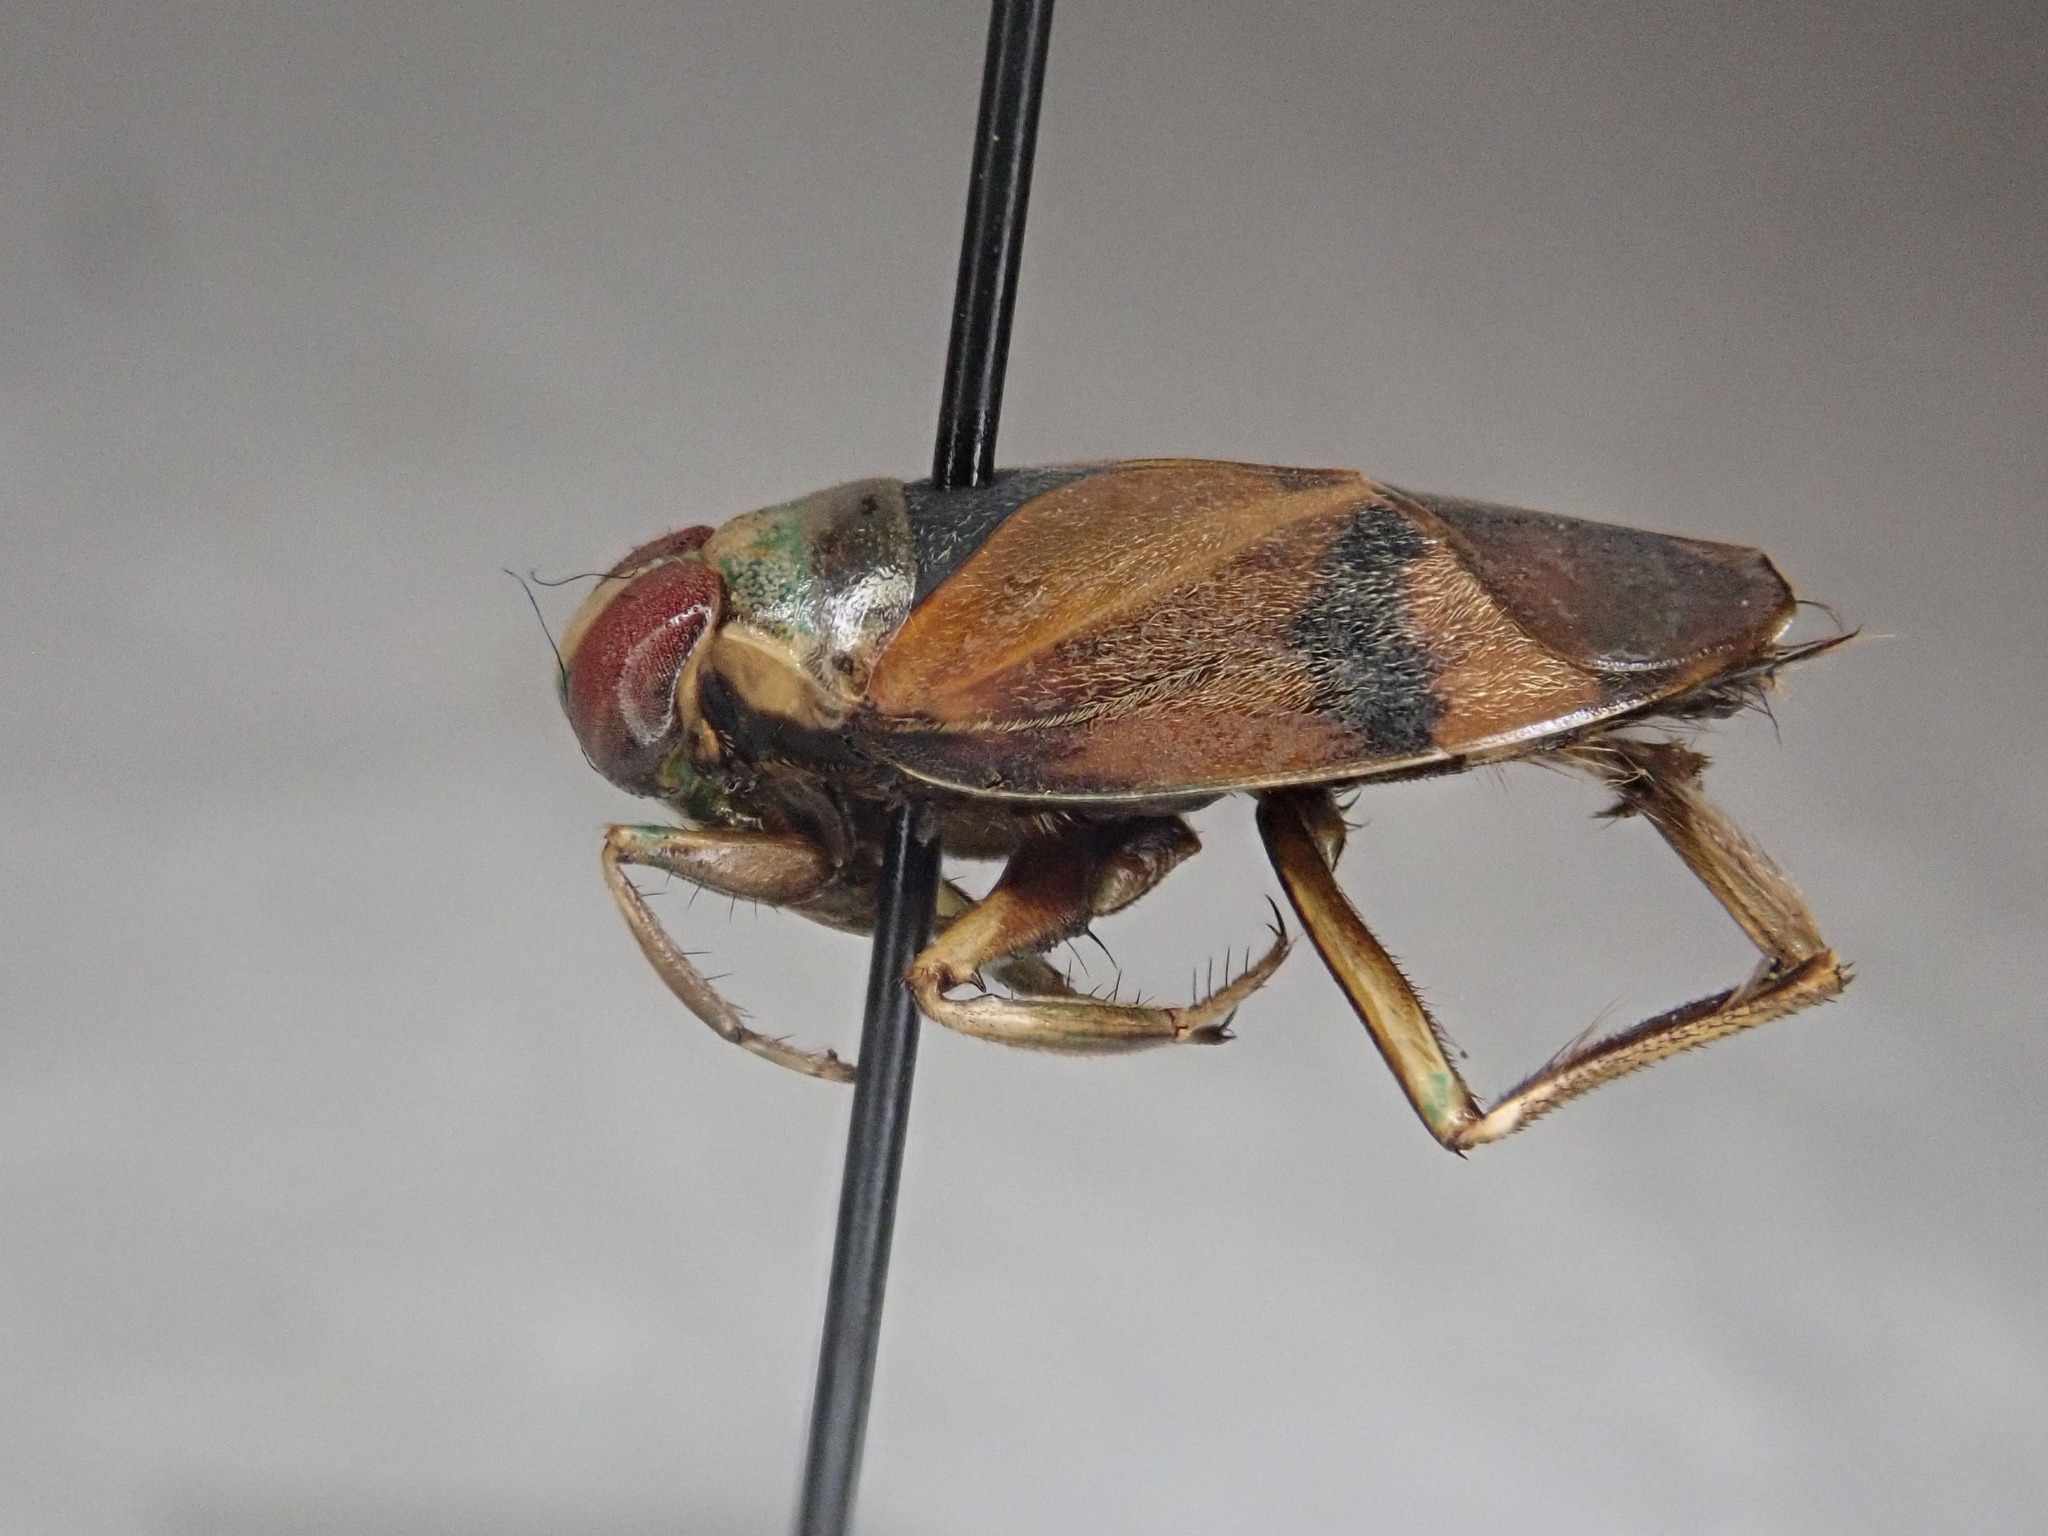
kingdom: Animalia
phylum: Arthropoda
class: Insecta
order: Hemiptera
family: Notonectidae
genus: Notonecta
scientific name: Notonecta uhleri
